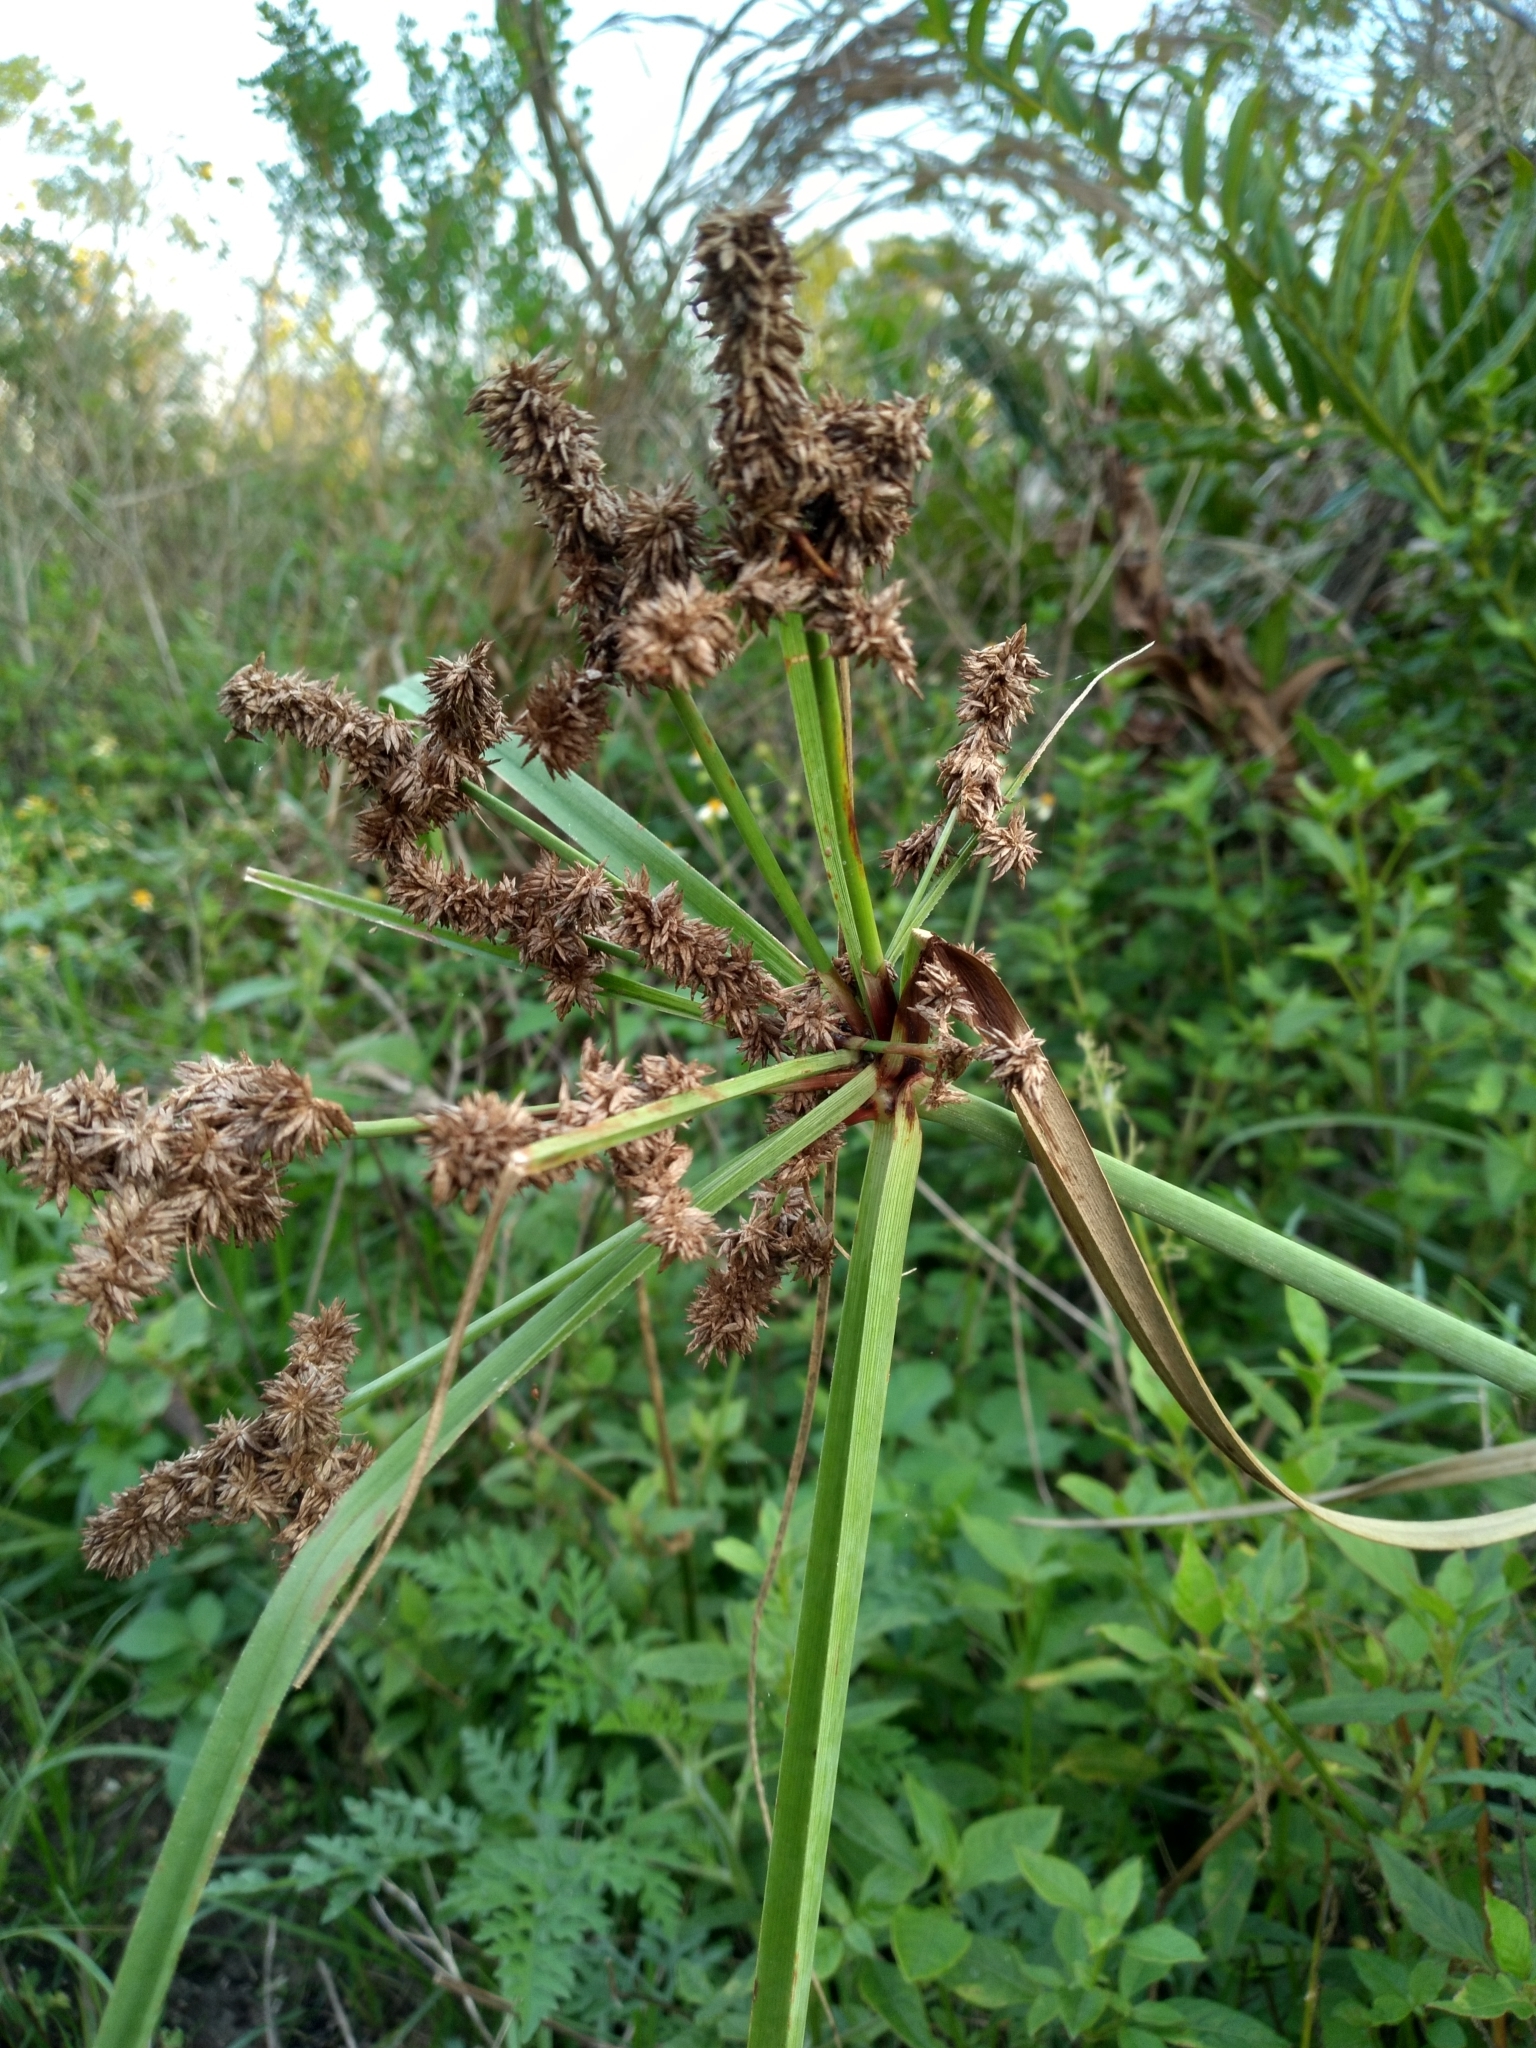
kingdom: Plantae
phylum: Tracheophyta
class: Liliopsida
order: Poales
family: Cyperaceae
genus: Cyperus
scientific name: Cyperus ligularis
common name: Swamp flat sedge
